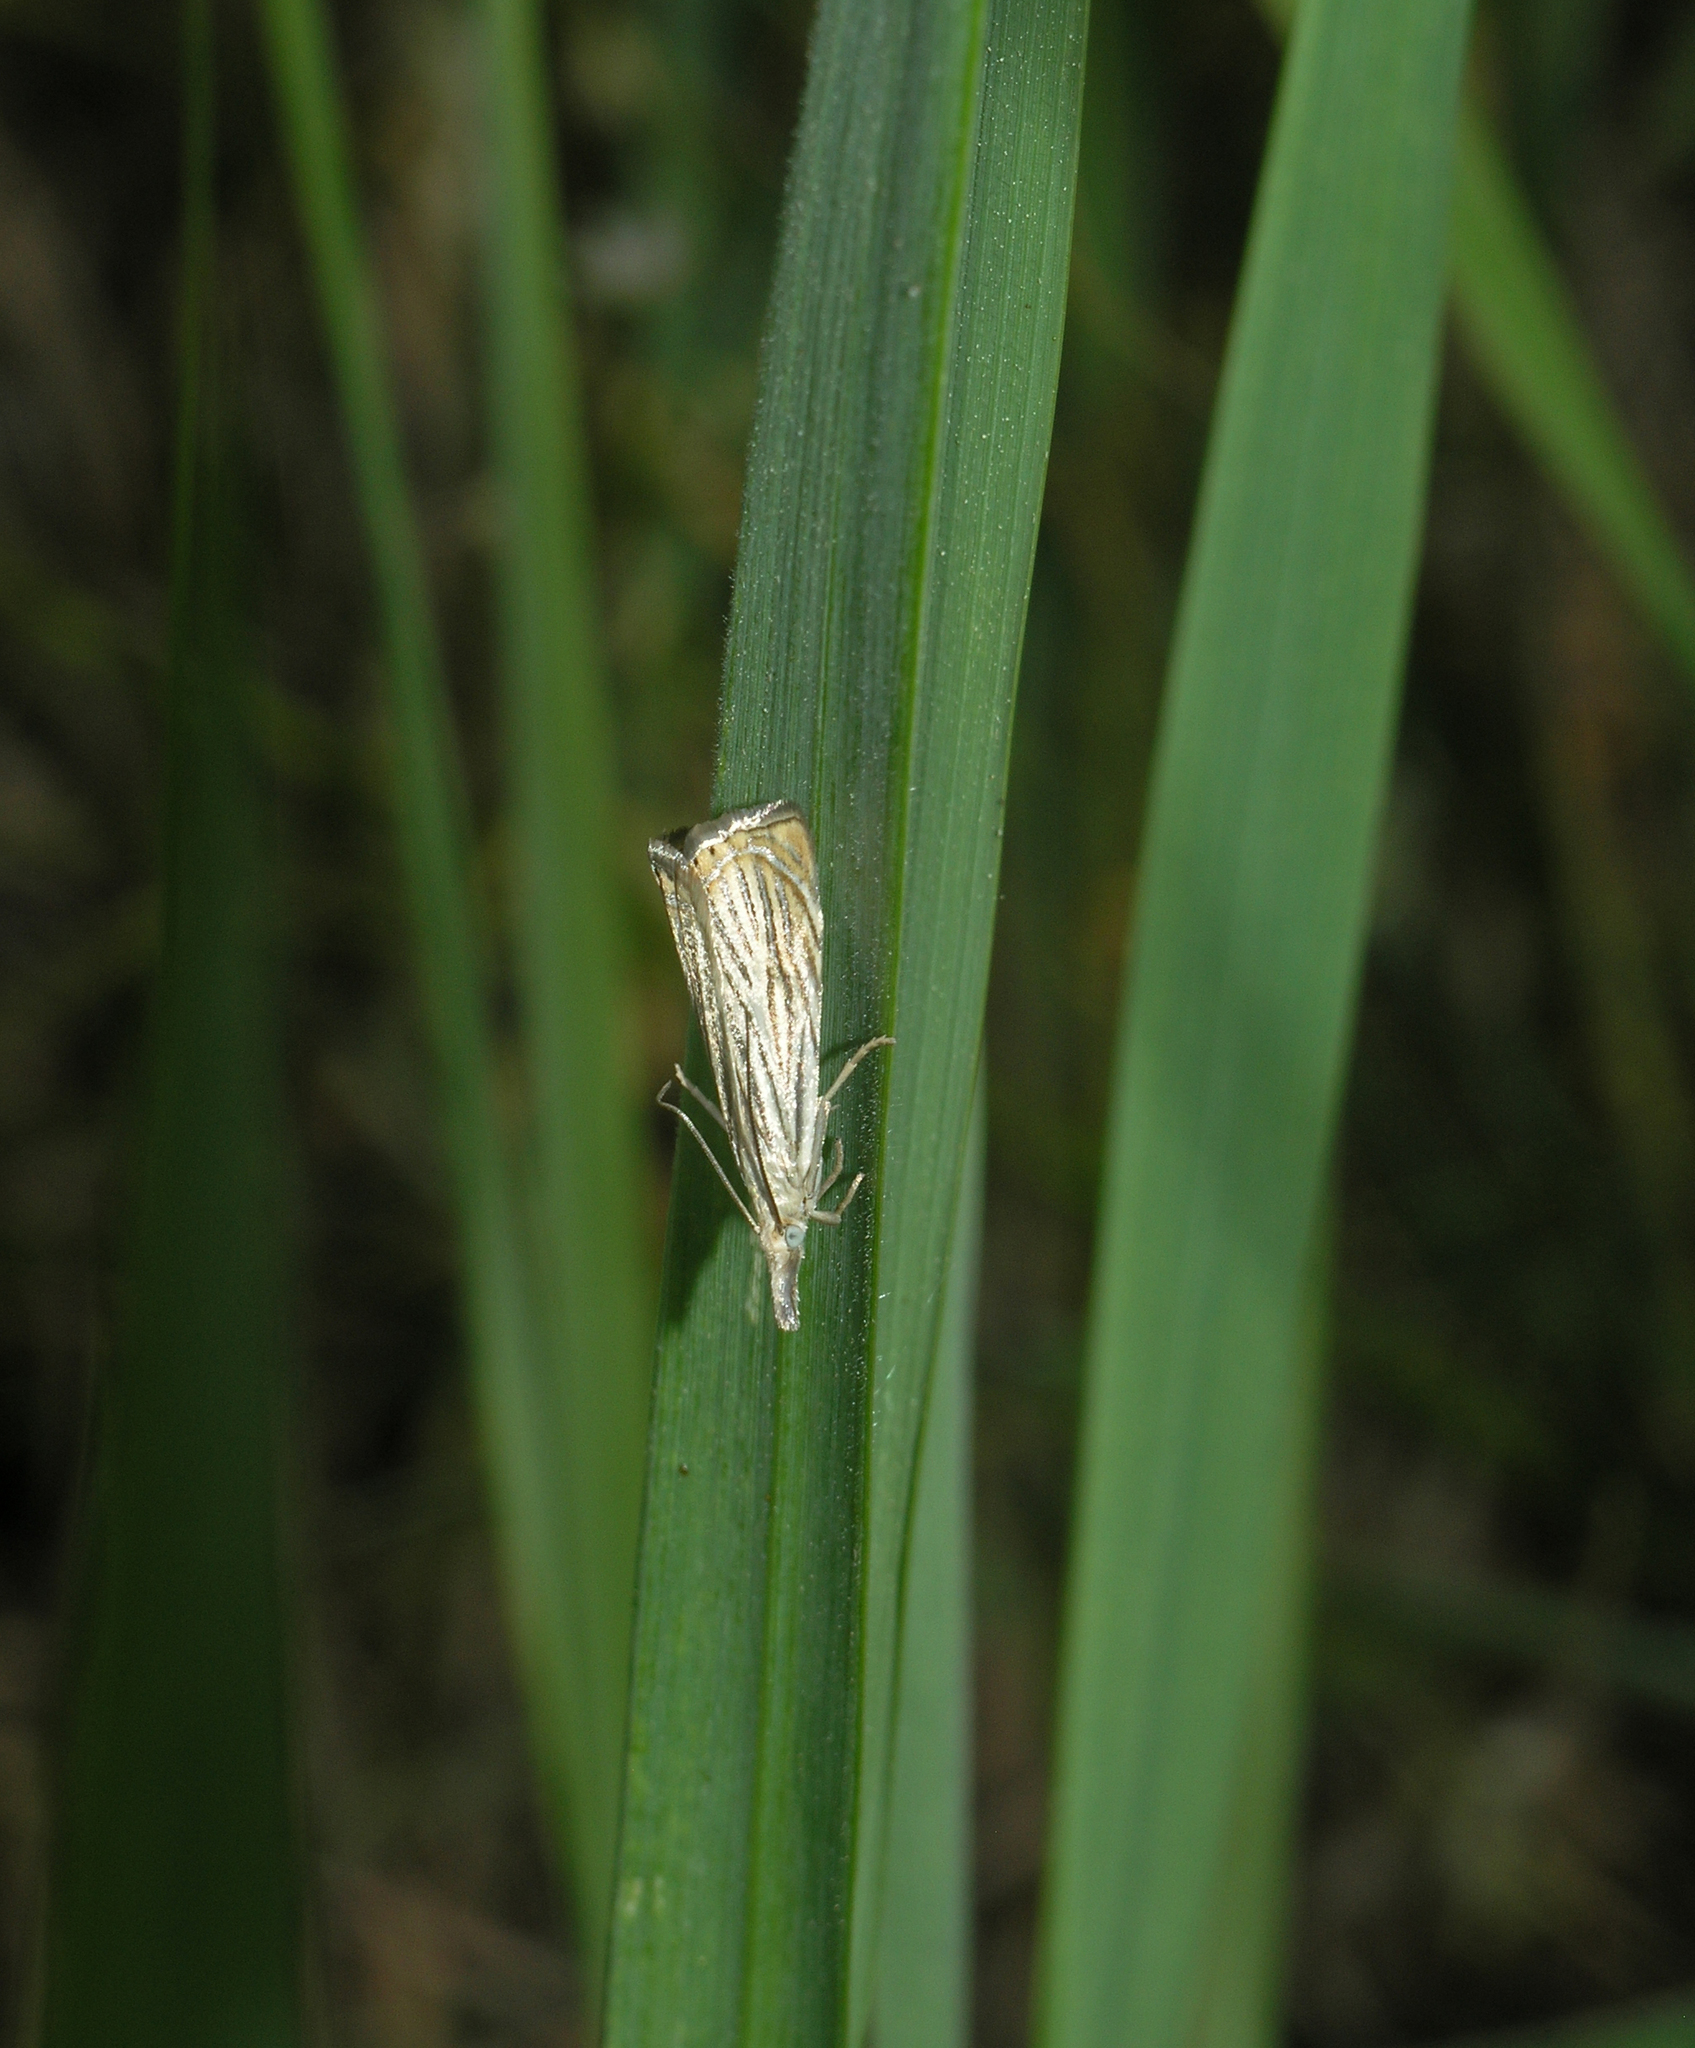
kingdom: Animalia
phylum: Arthropoda
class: Insecta
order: Lepidoptera
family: Crambidae
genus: Chrysoteuchia
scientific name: Chrysoteuchia culmella
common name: Garden grass-veneer
